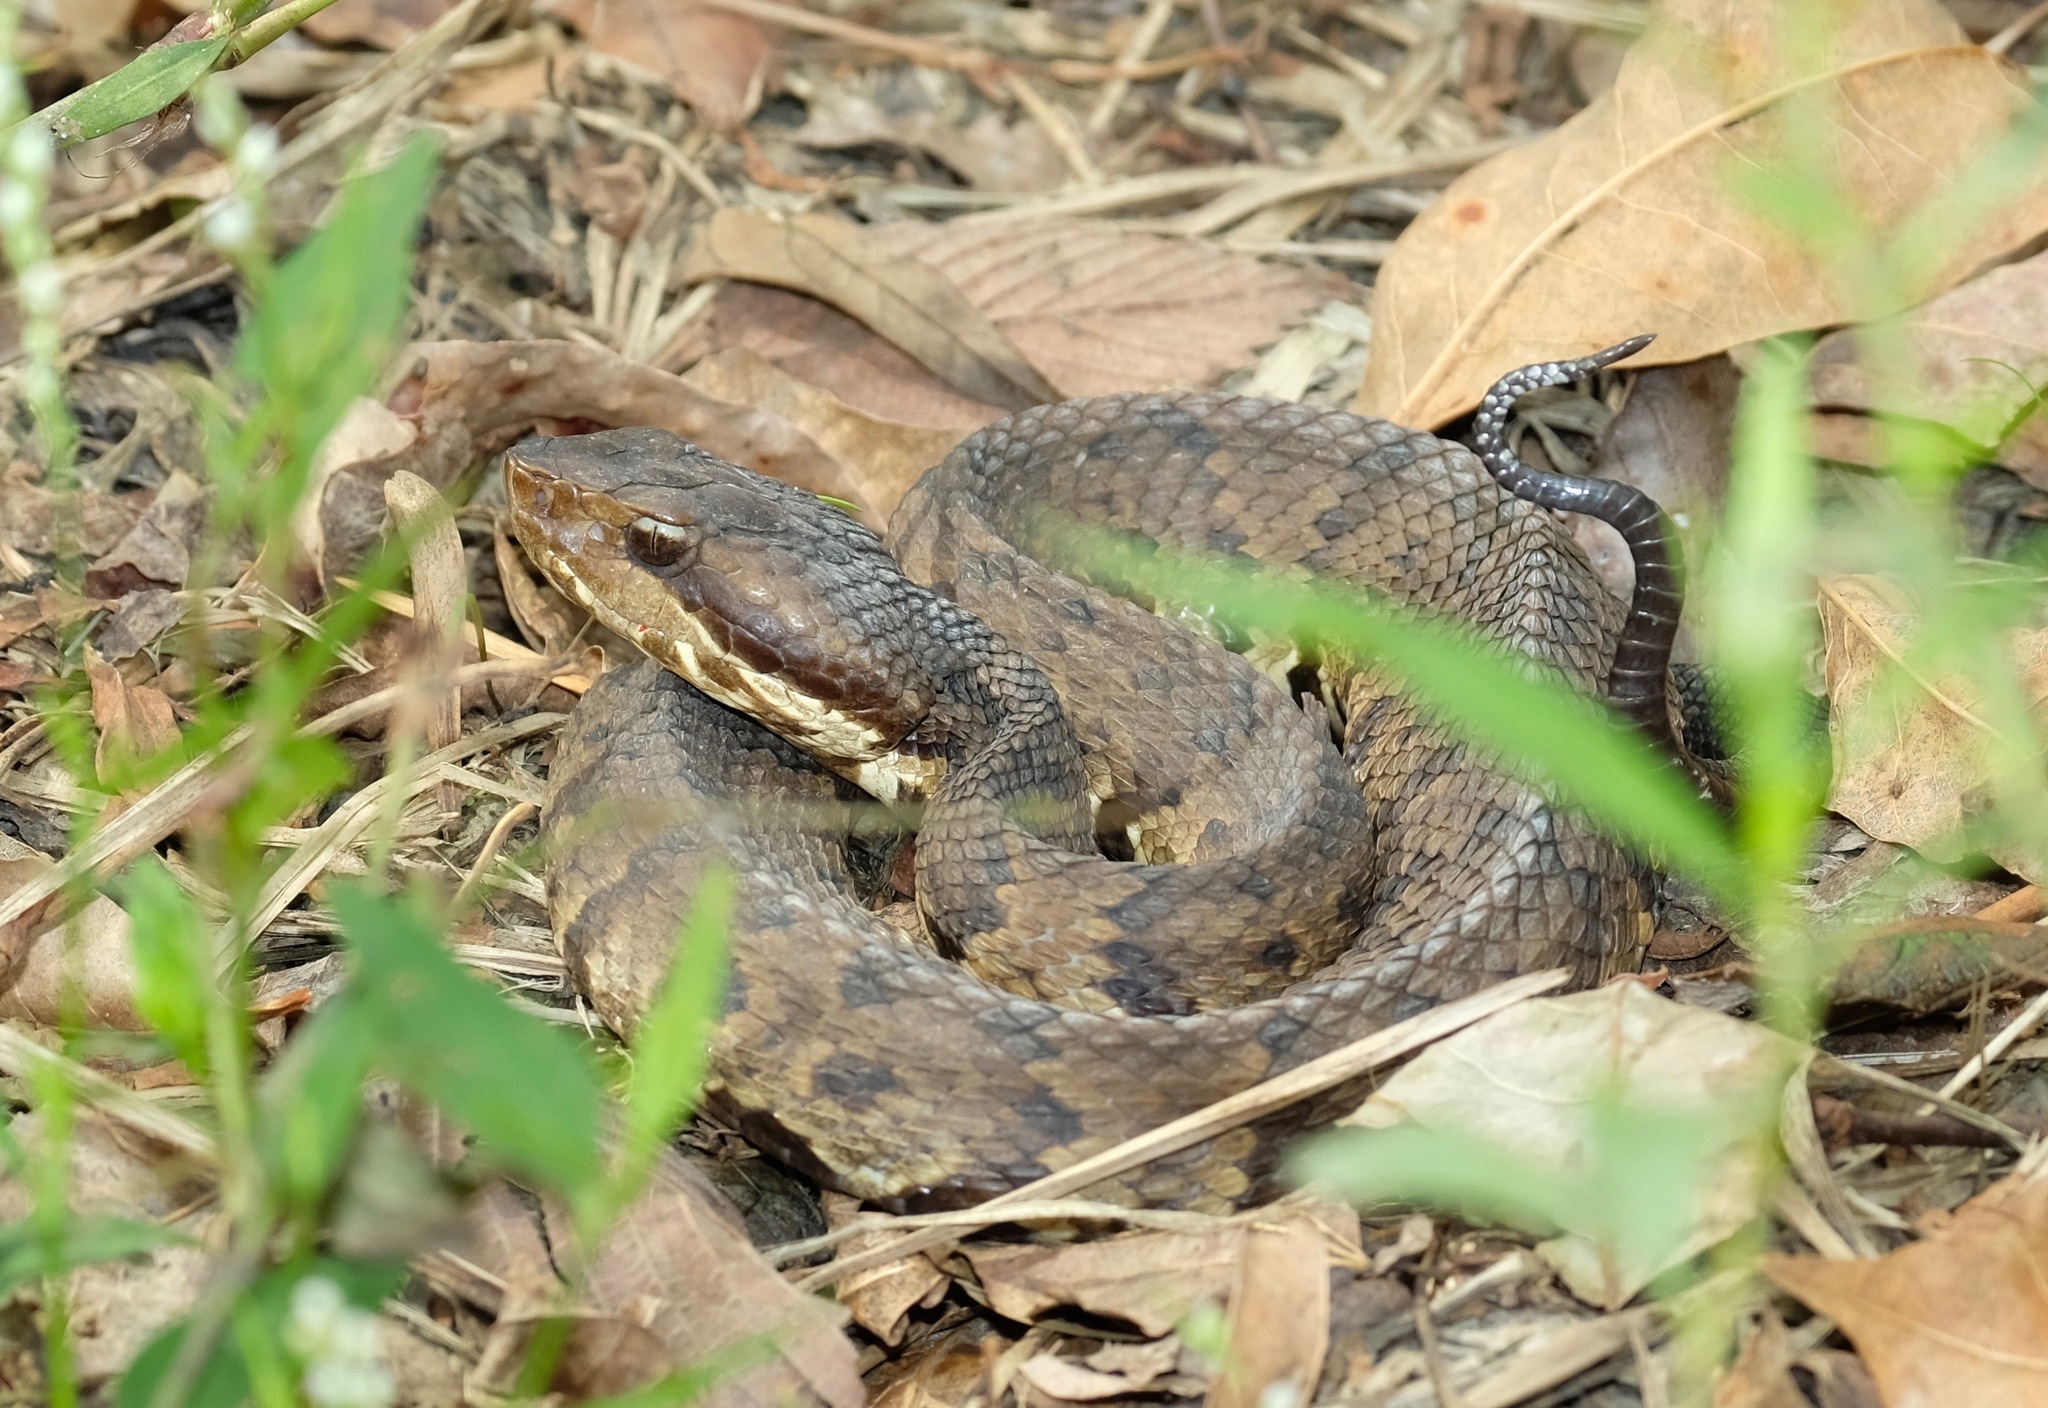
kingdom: Animalia
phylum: Chordata
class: Squamata
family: Viperidae
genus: Agkistrodon
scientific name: Agkistrodon piscivorus
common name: Cottonmouth
